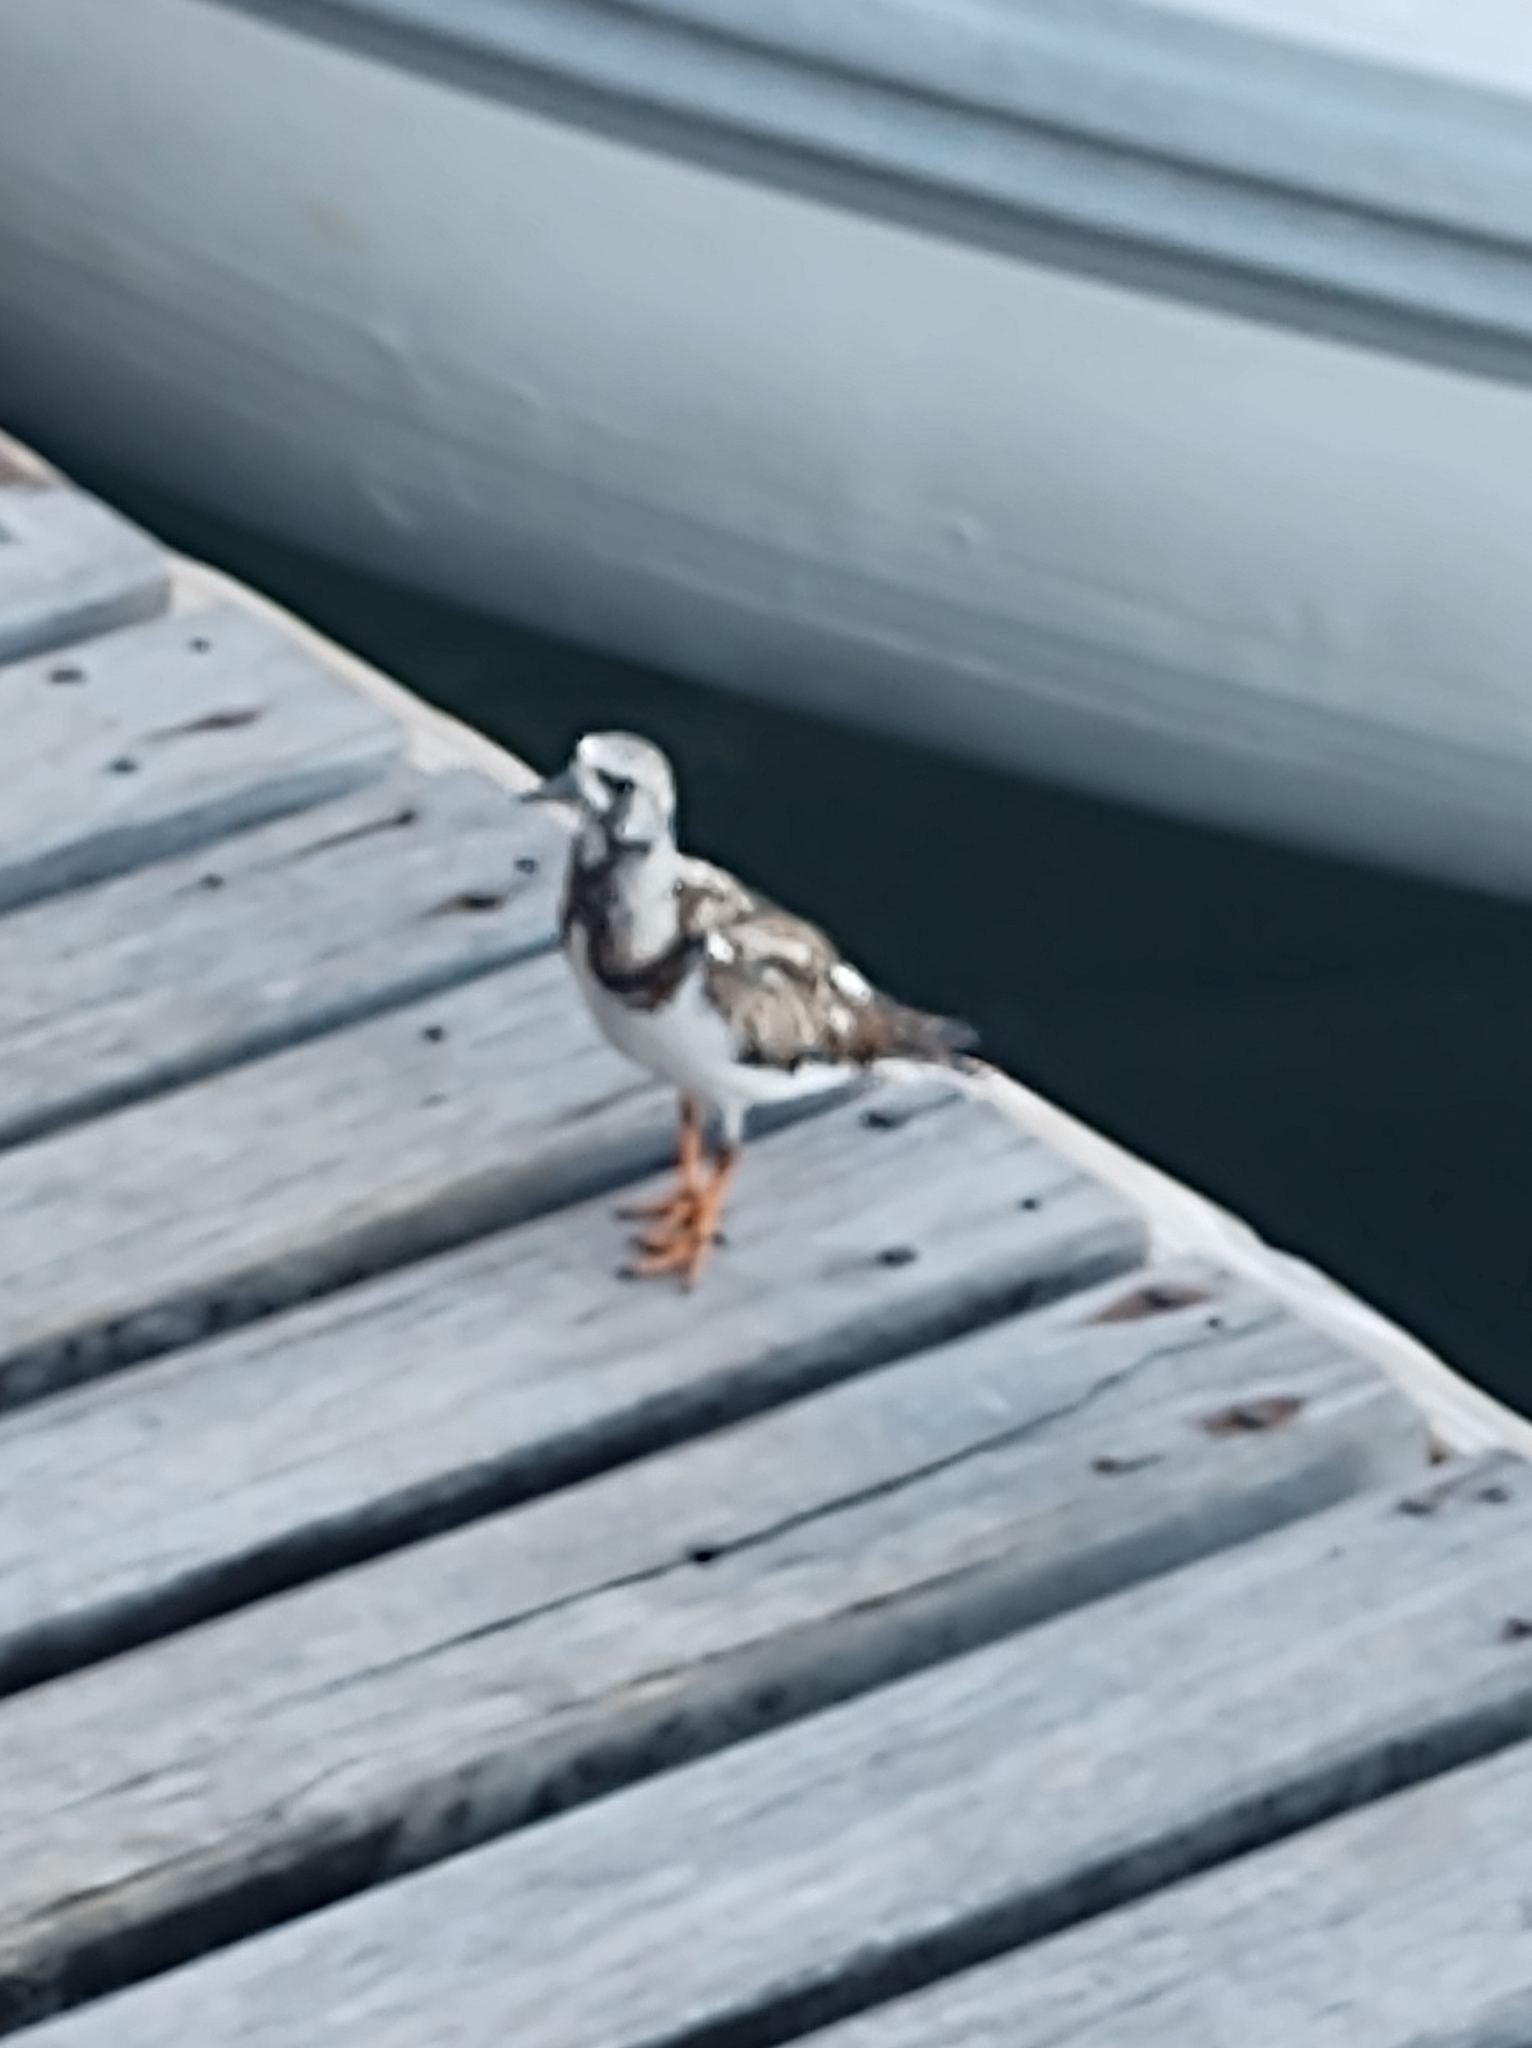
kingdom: Animalia
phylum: Chordata
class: Aves
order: Charadriiformes
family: Scolopacidae
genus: Arenaria
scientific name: Arenaria interpres
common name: Ruddy turnstone
